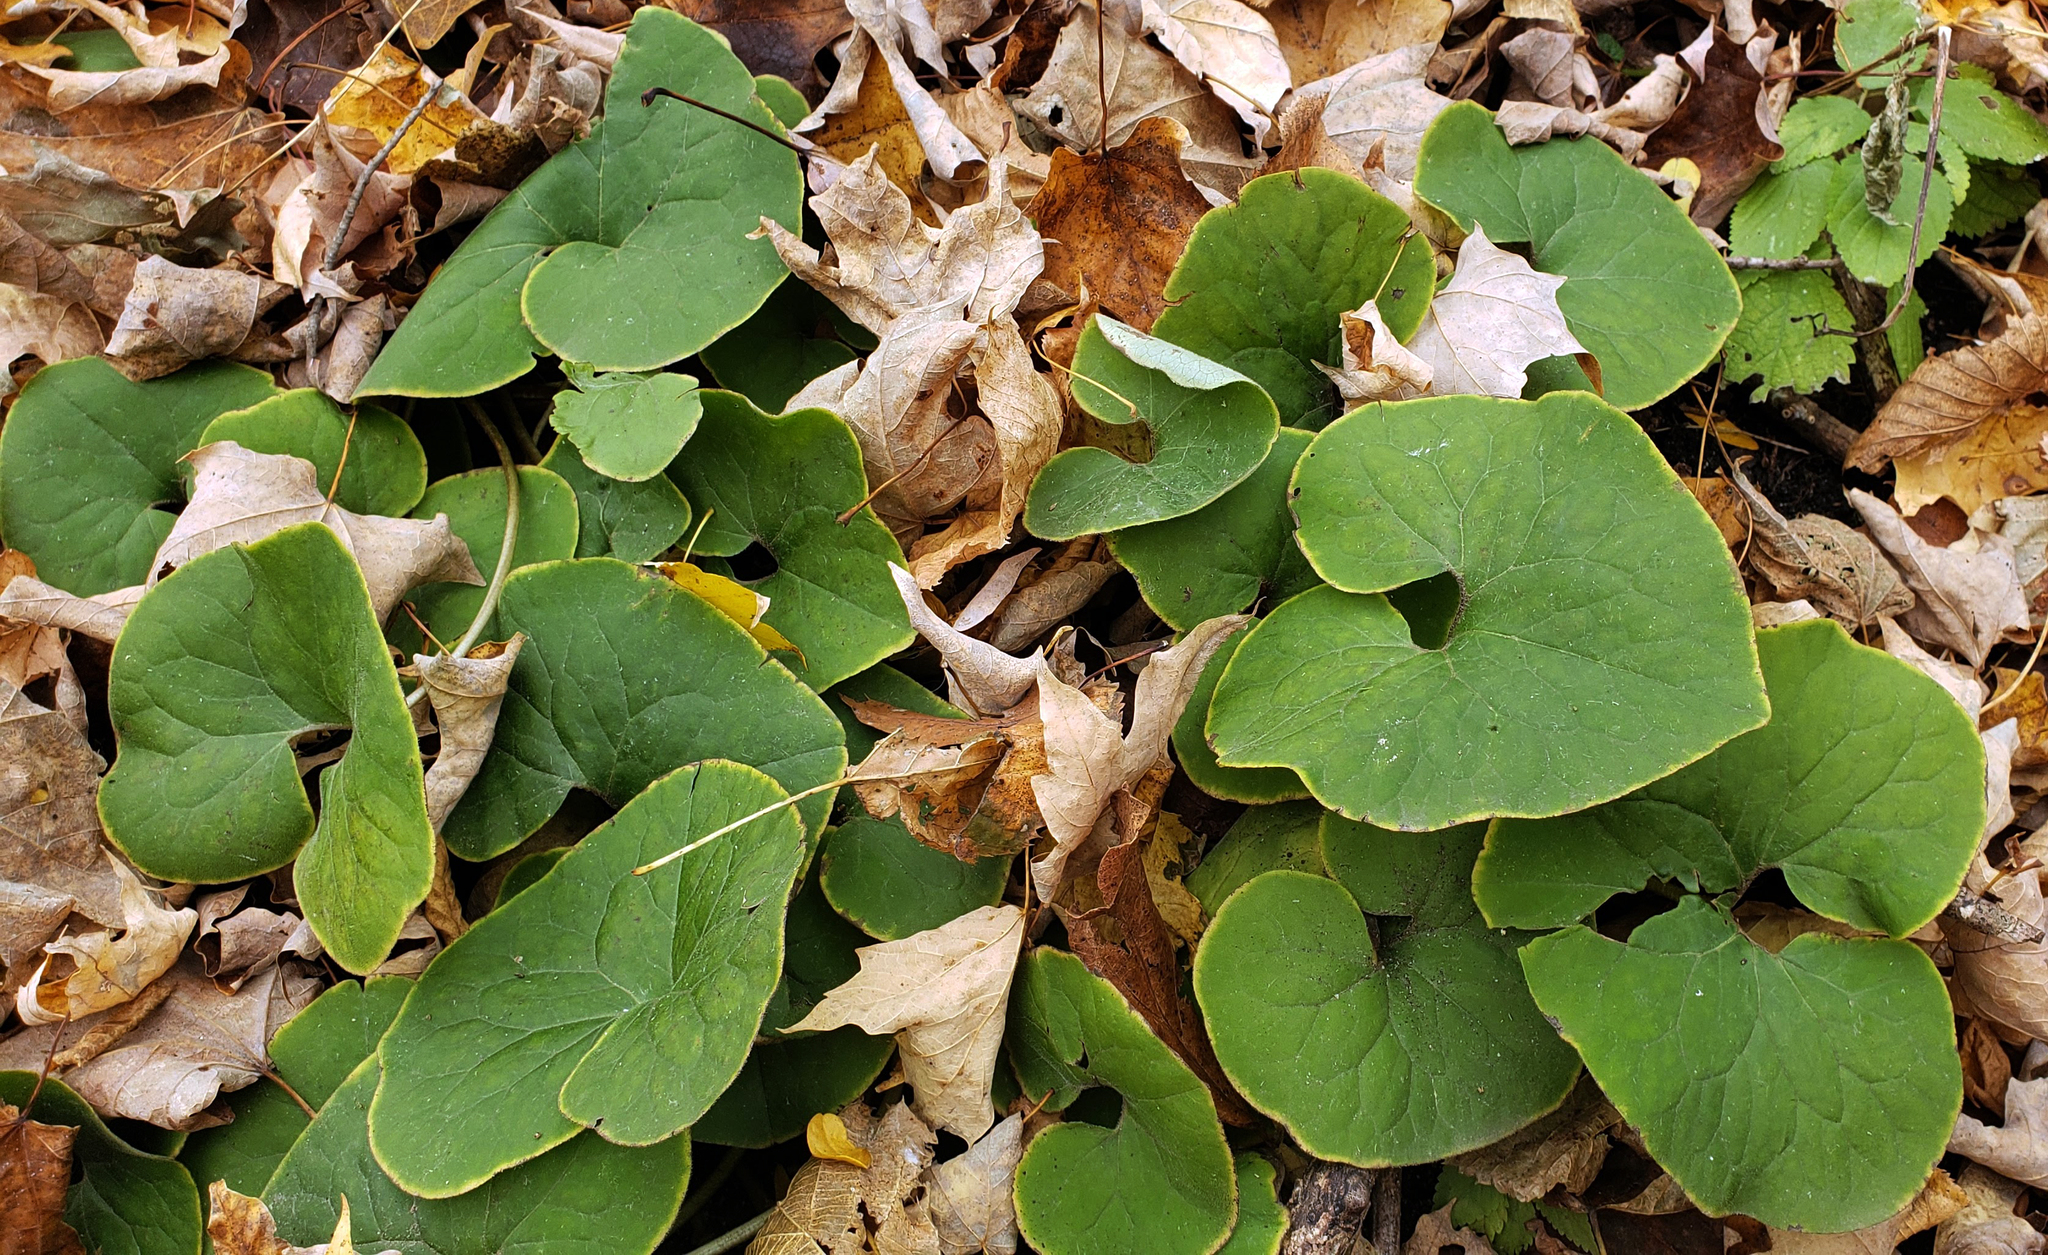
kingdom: Plantae
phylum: Tracheophyta
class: Magnoliopsida
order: Piperales
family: Aristolochiaceae
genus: Asarum
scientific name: Asarum canadense
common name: Wild ginger
